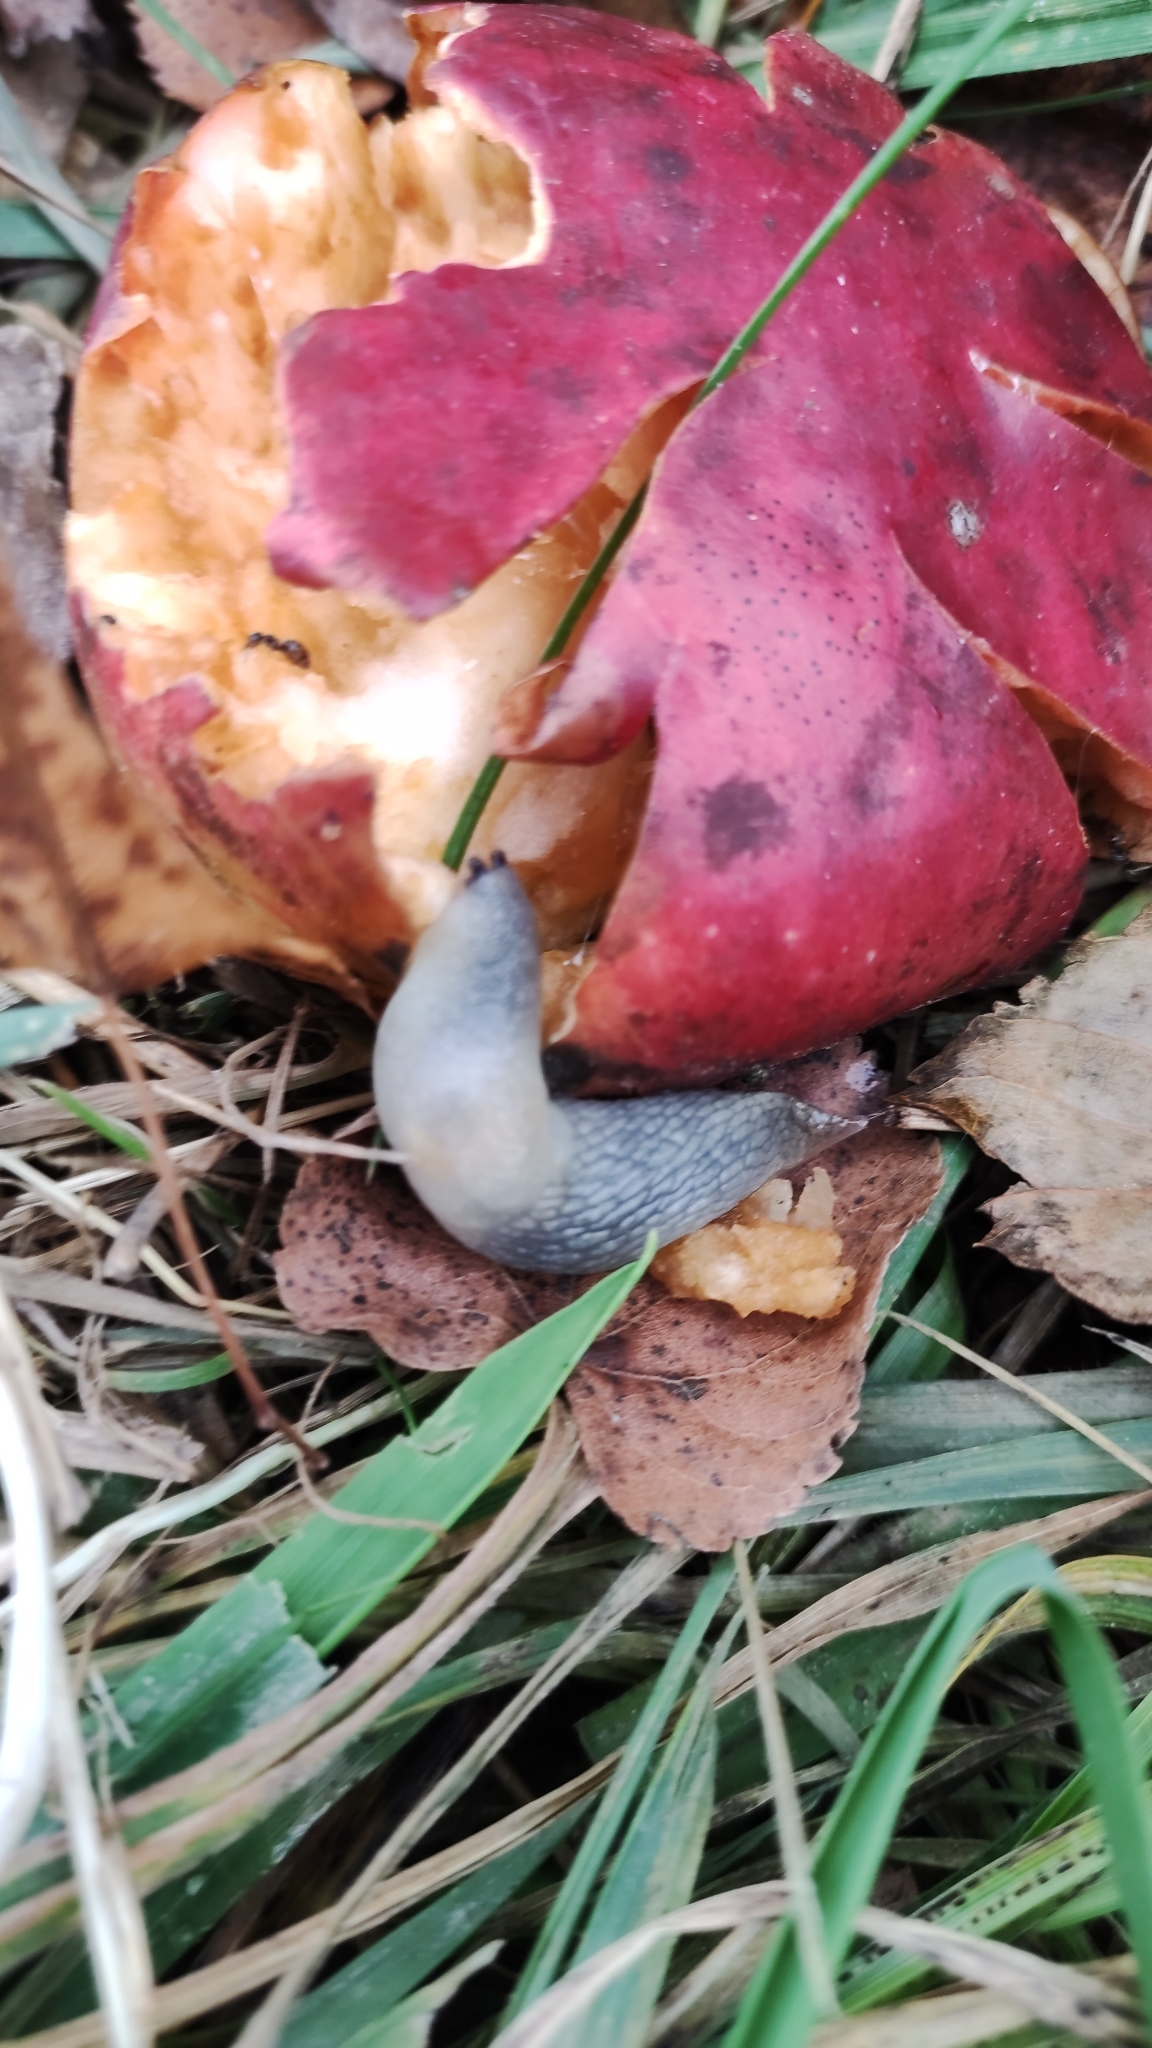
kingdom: Animalia
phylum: Mollusca
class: Gastropoda
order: Stylommatophora
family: Agriolimacidae
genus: Krynickillus
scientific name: Krynickillus melanocephalus
